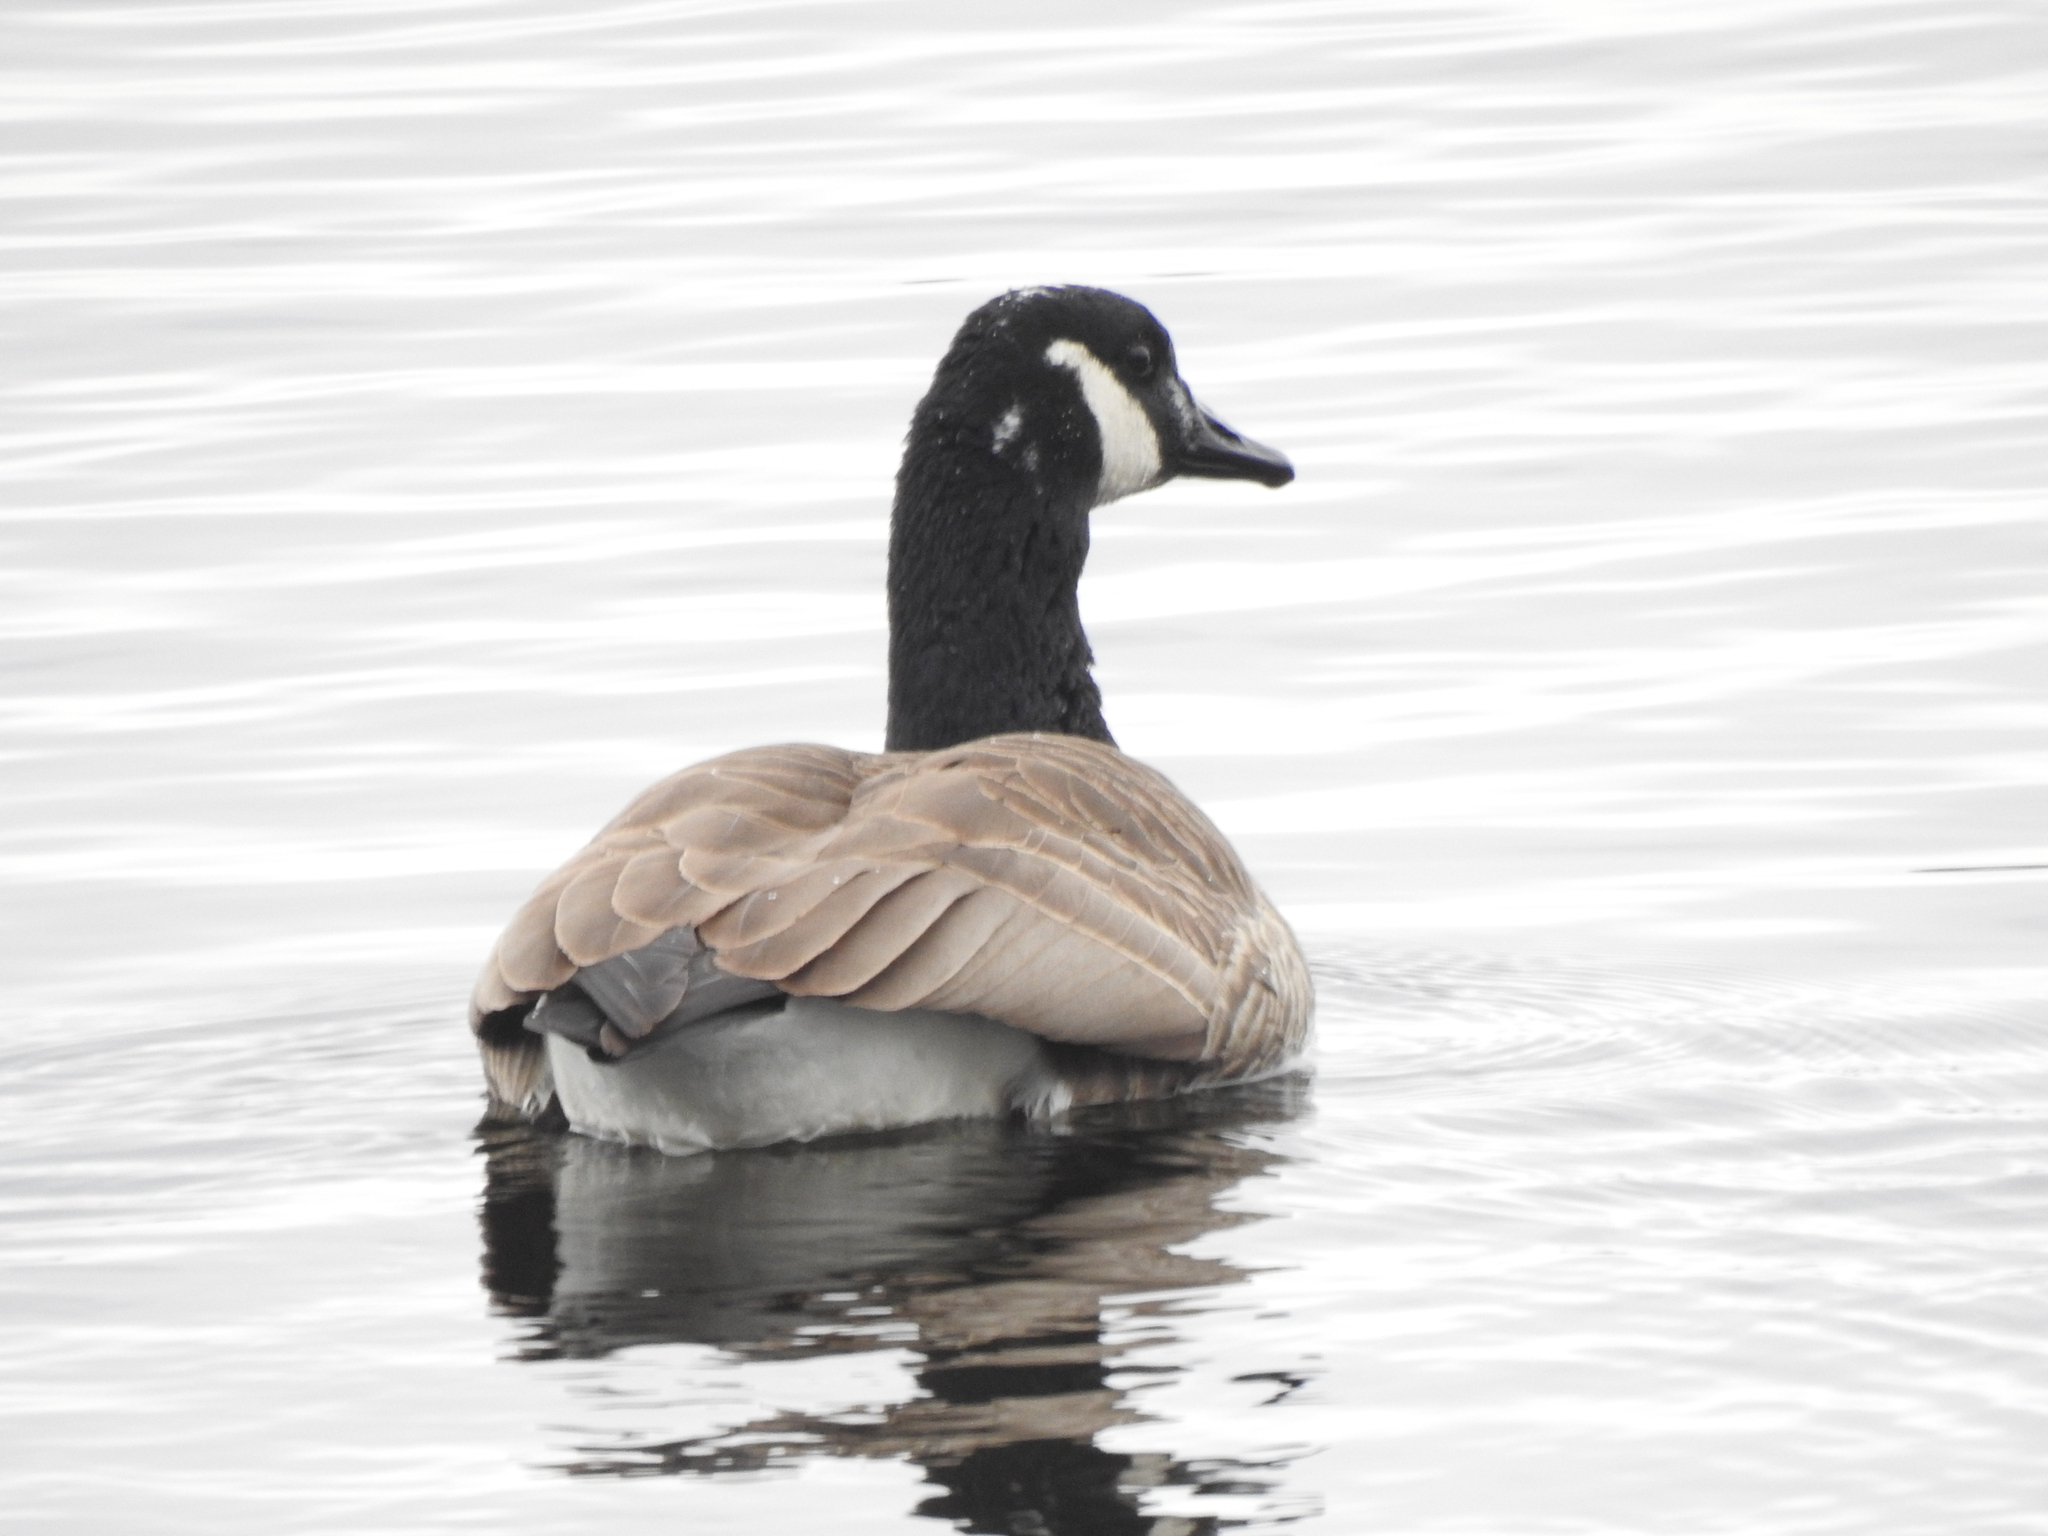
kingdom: Animalia
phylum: Chordata
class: Aves
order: Anseriformes
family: Anatidae
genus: Branta
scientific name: Branta canadensis
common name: Canada goose
